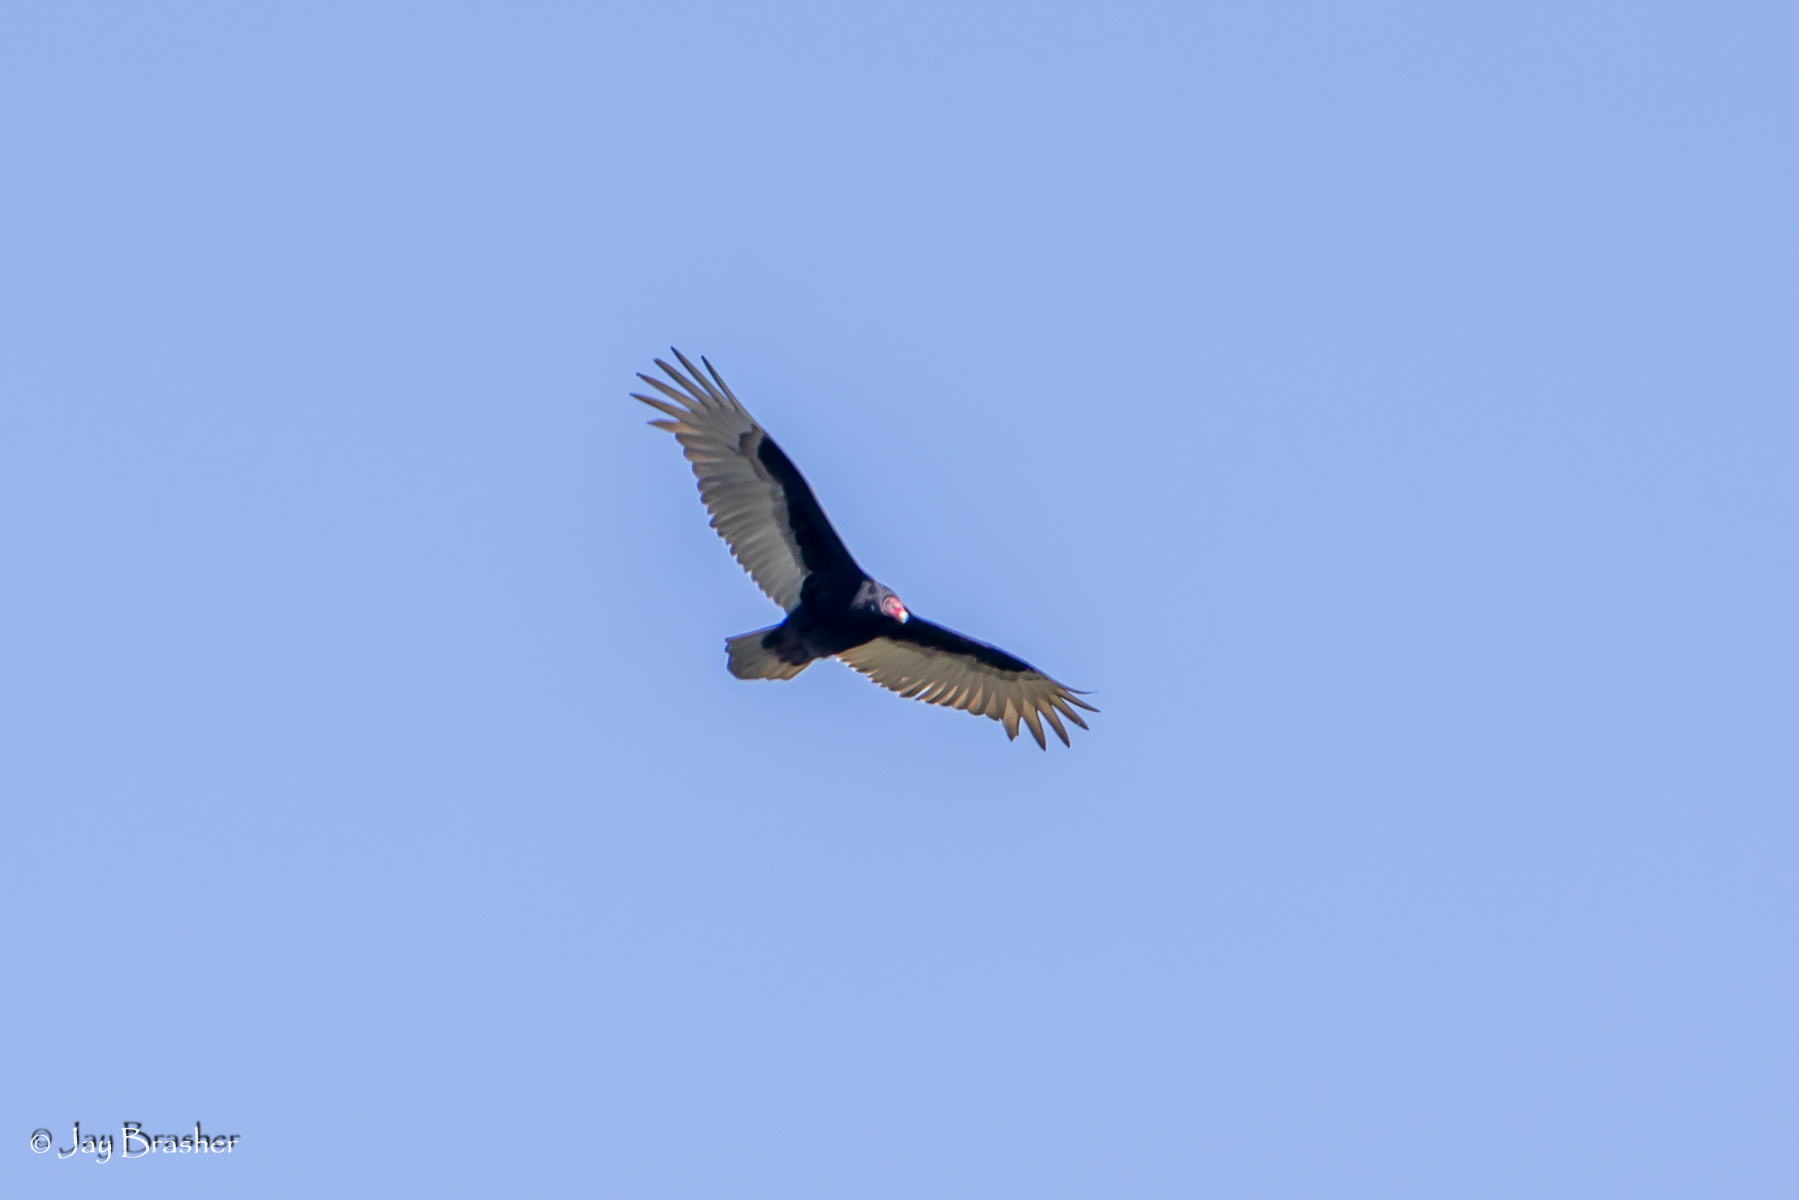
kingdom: Animalia
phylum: Chordata
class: Aves
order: Accipitriformes
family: Cathartidae
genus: Cathartes
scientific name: Cathartes aura
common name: Turkey vulture
